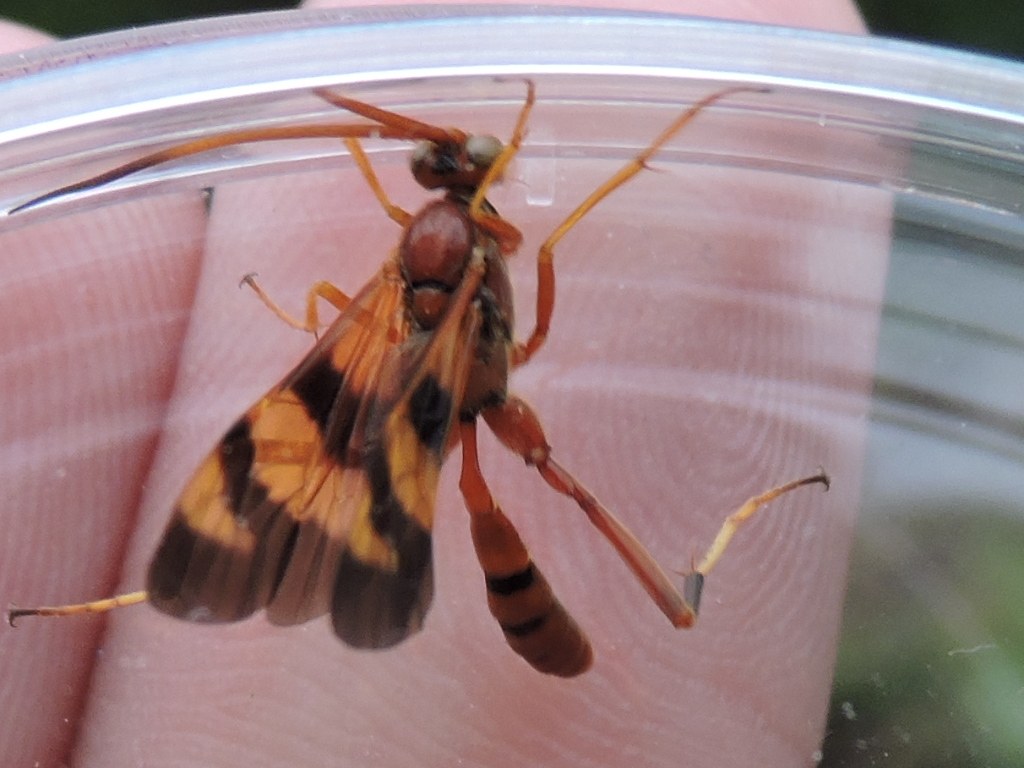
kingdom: Animalia
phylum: Arthropoda
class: Insecta
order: Hymenoptera
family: Ichneumonidae
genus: Compsocryptus
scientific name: Compsocryptus texensis
